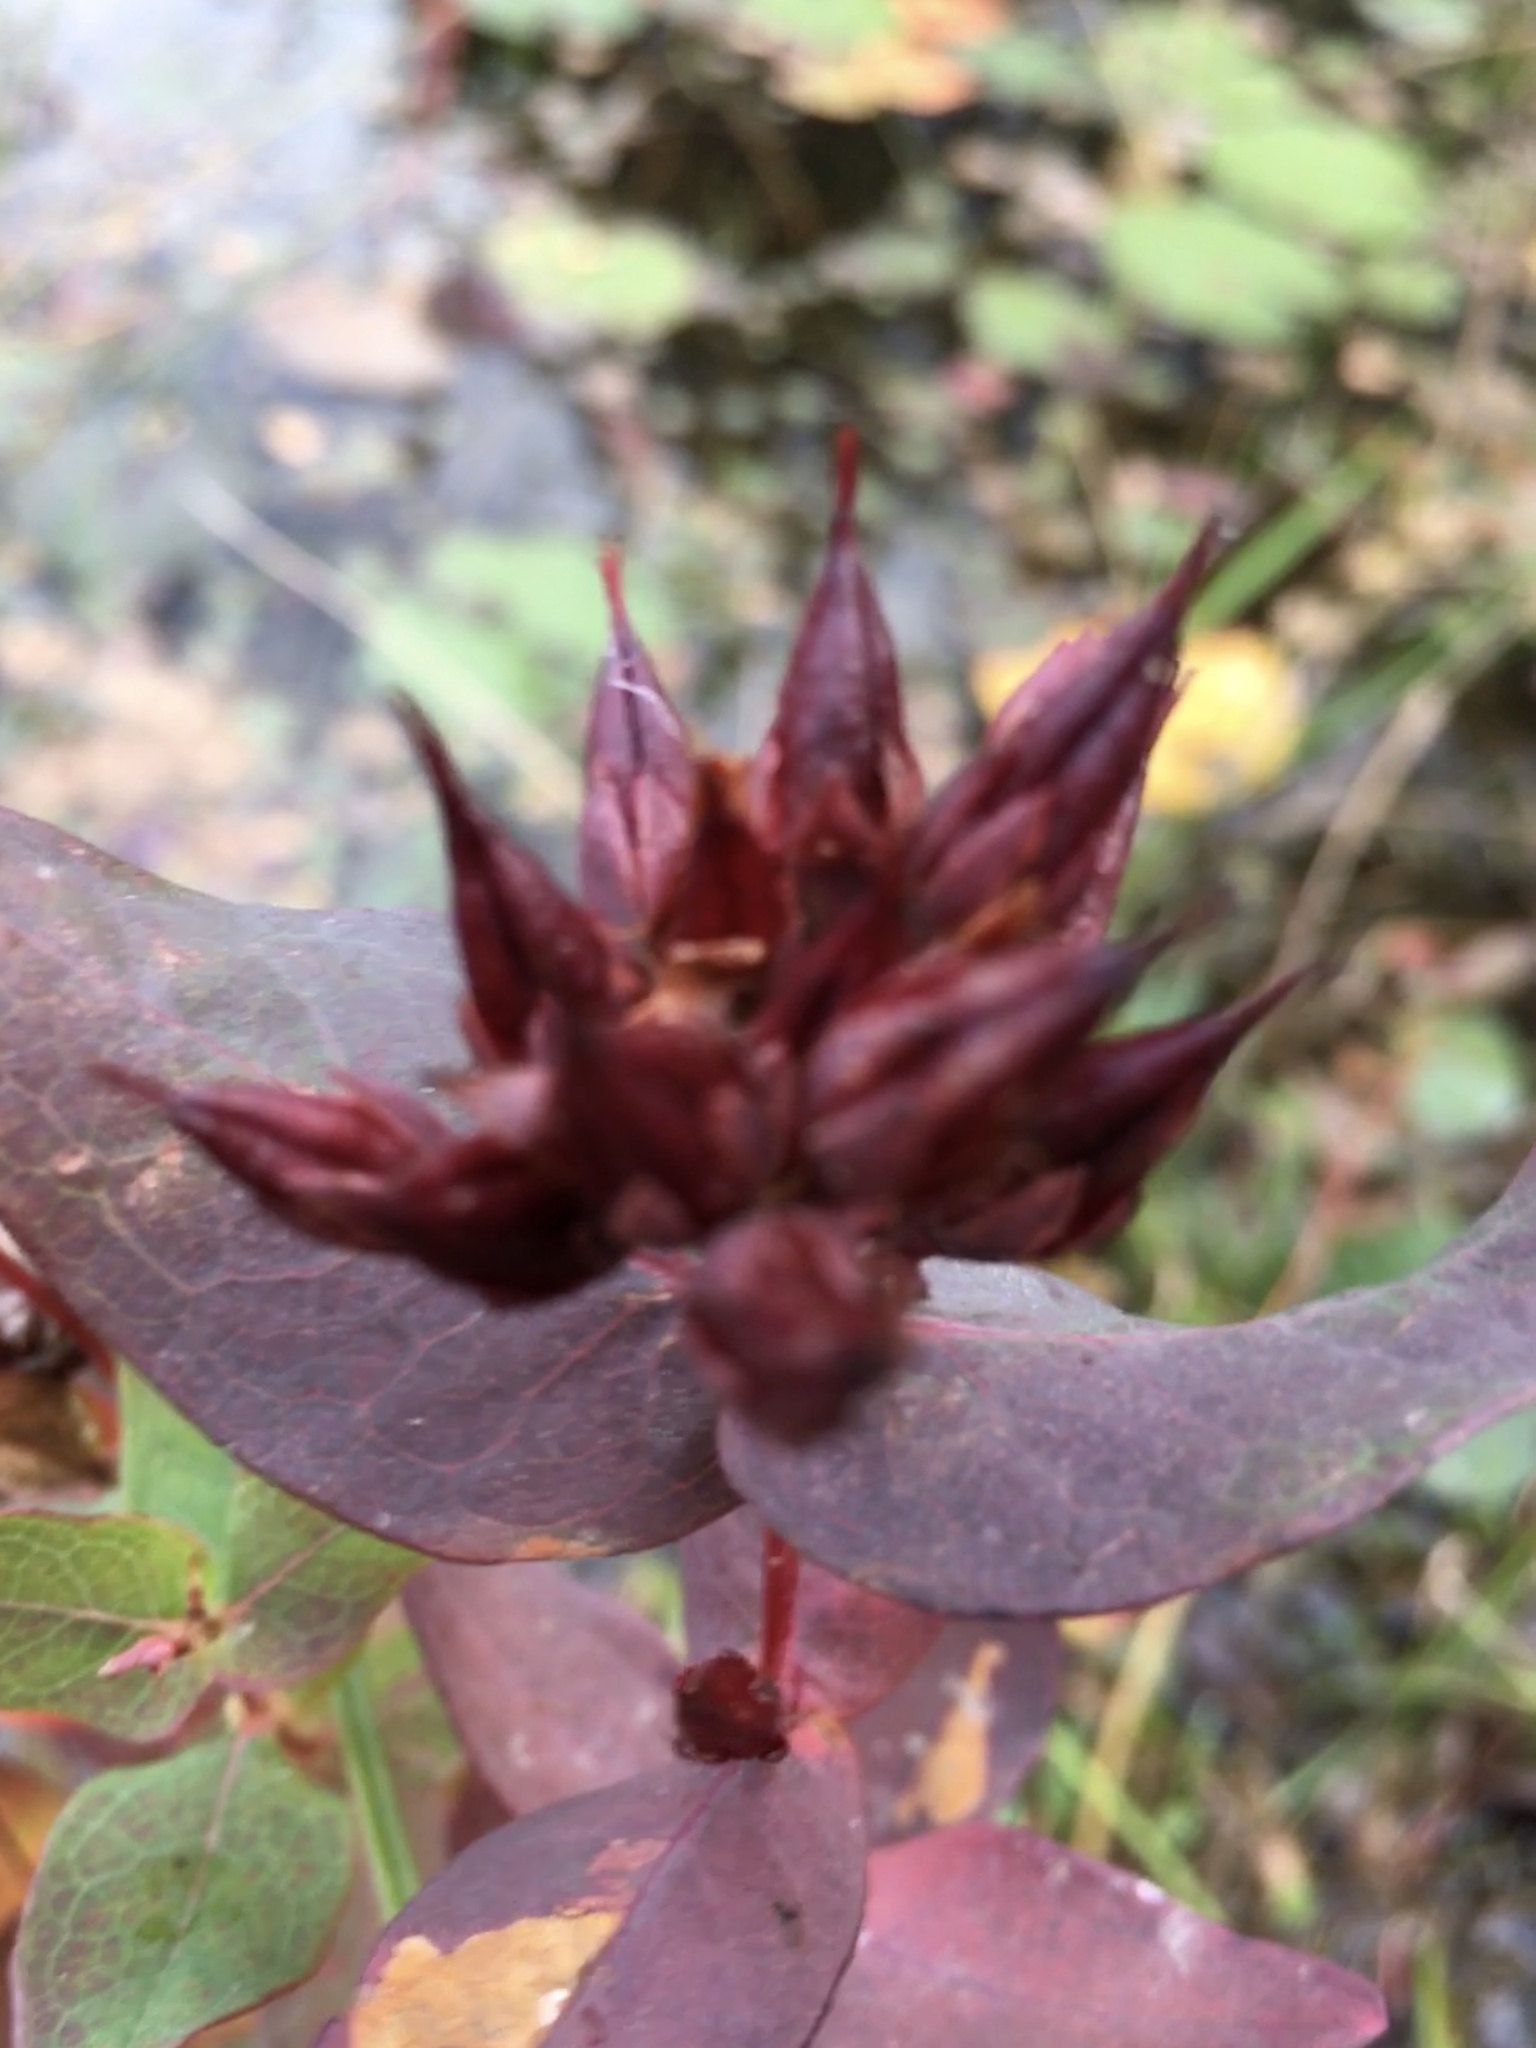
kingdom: Plantae
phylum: Tracheophyta
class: Magnoliopsida
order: Malpighiales
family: Hypericaceae
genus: Triadenum
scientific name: Triadenum virginicum
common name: Marsh st. john's-wort
